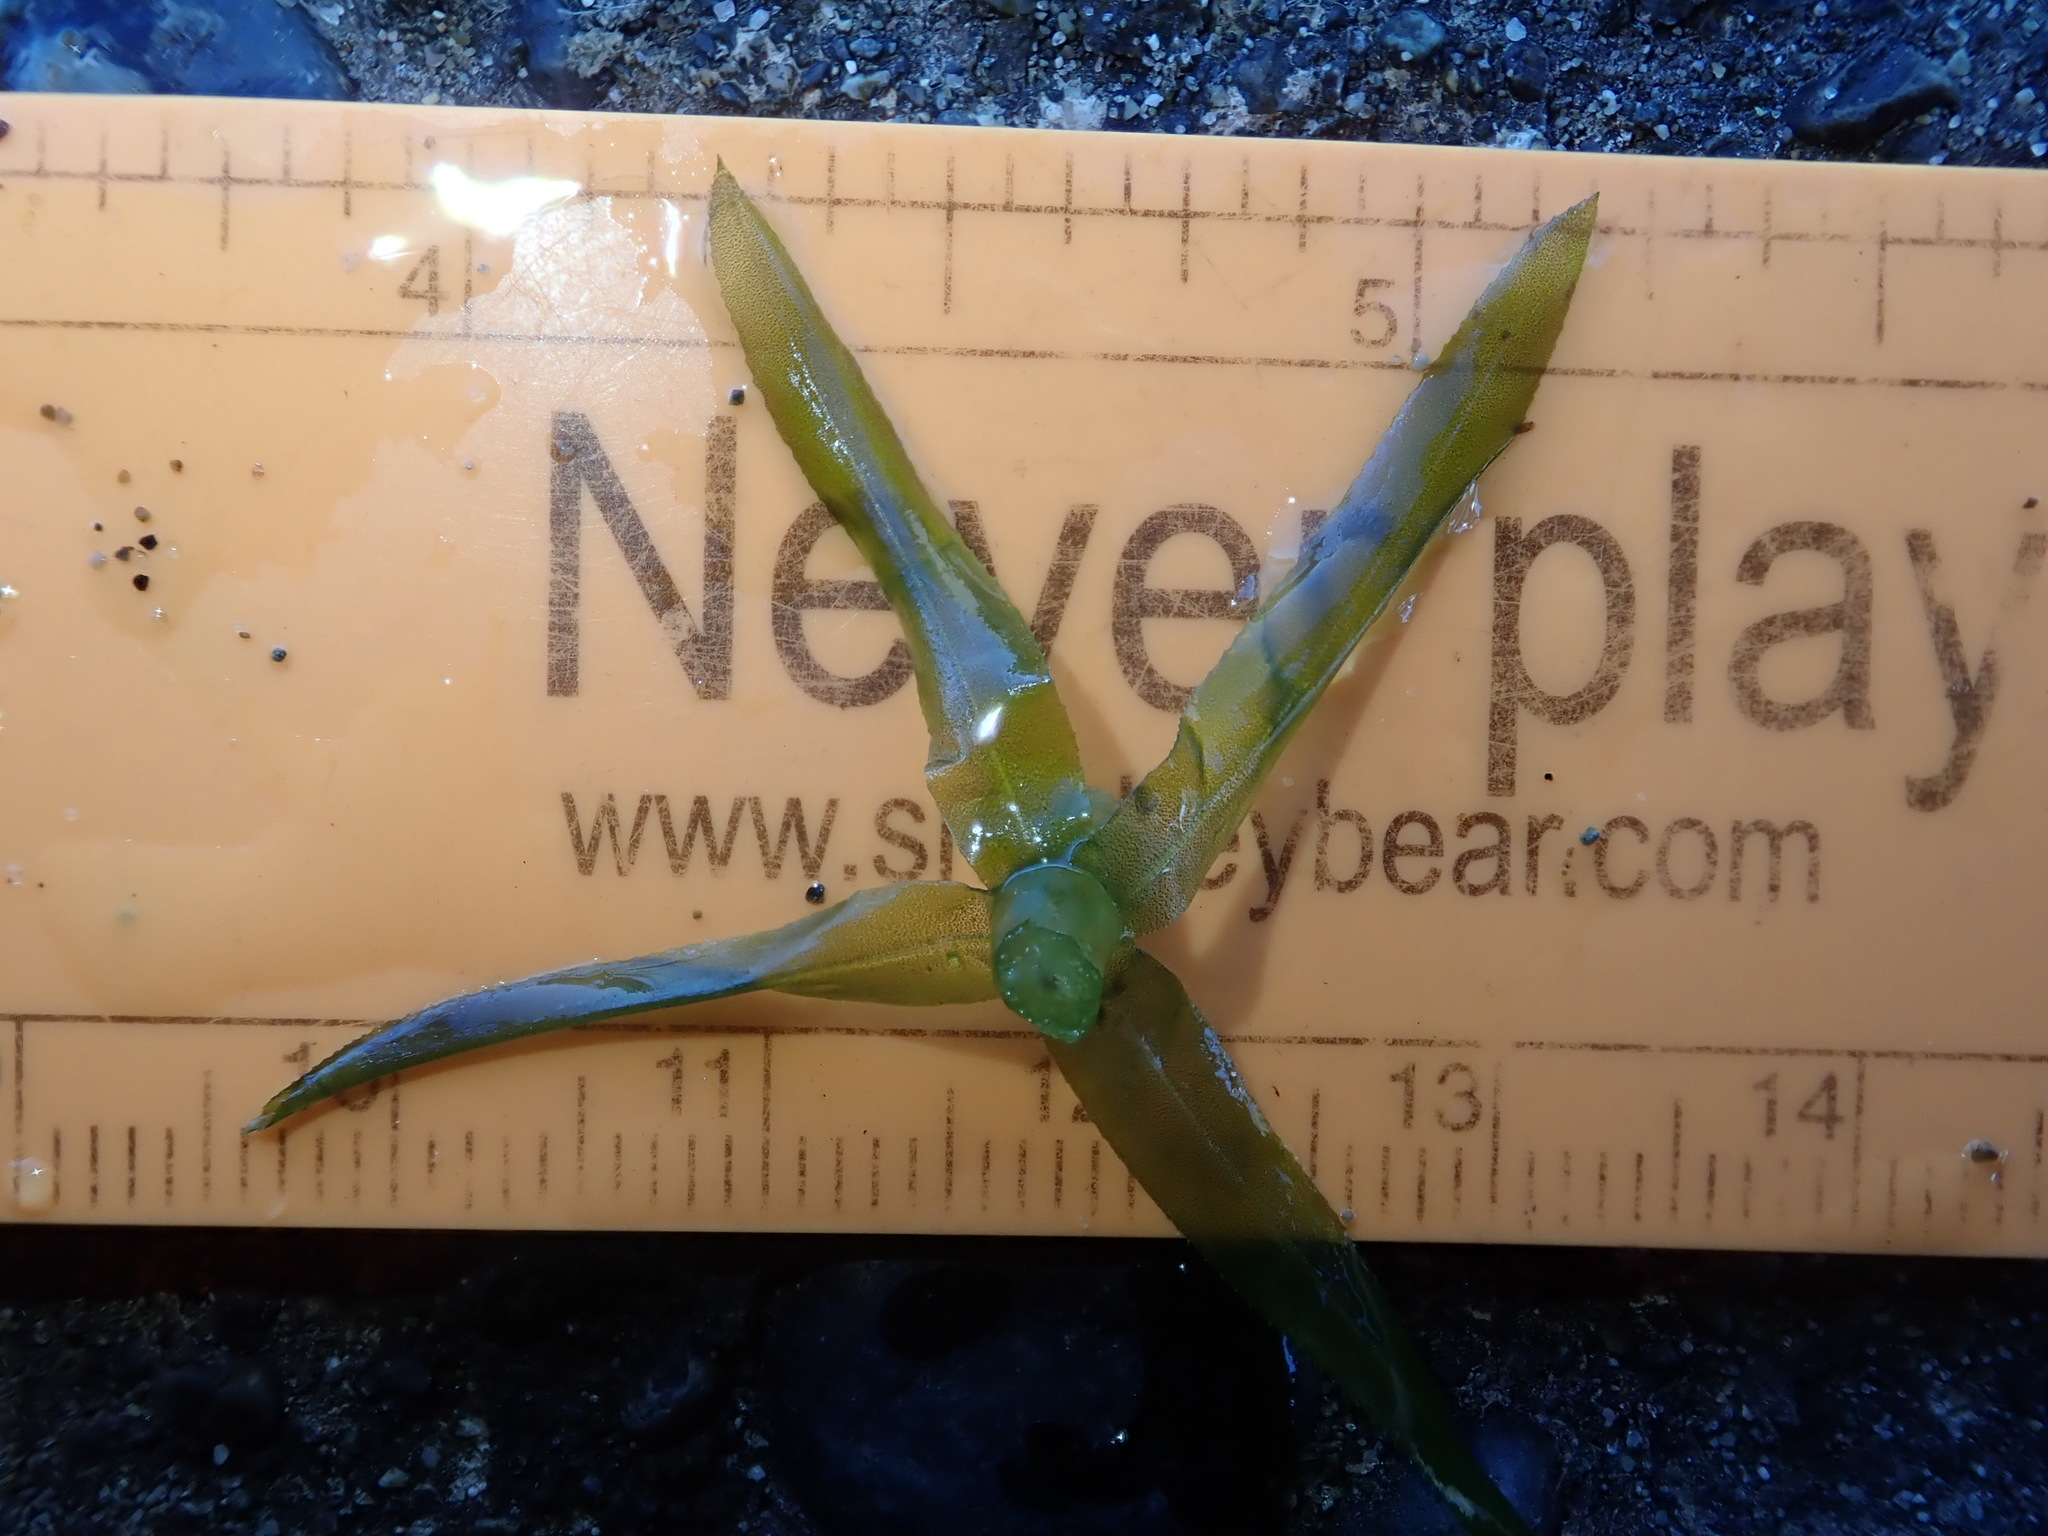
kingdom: Plantae
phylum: Tracheophyta
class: Liliopsida
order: Alismatales
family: Hydrocharitaceae
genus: Elodea
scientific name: Elodea densa
